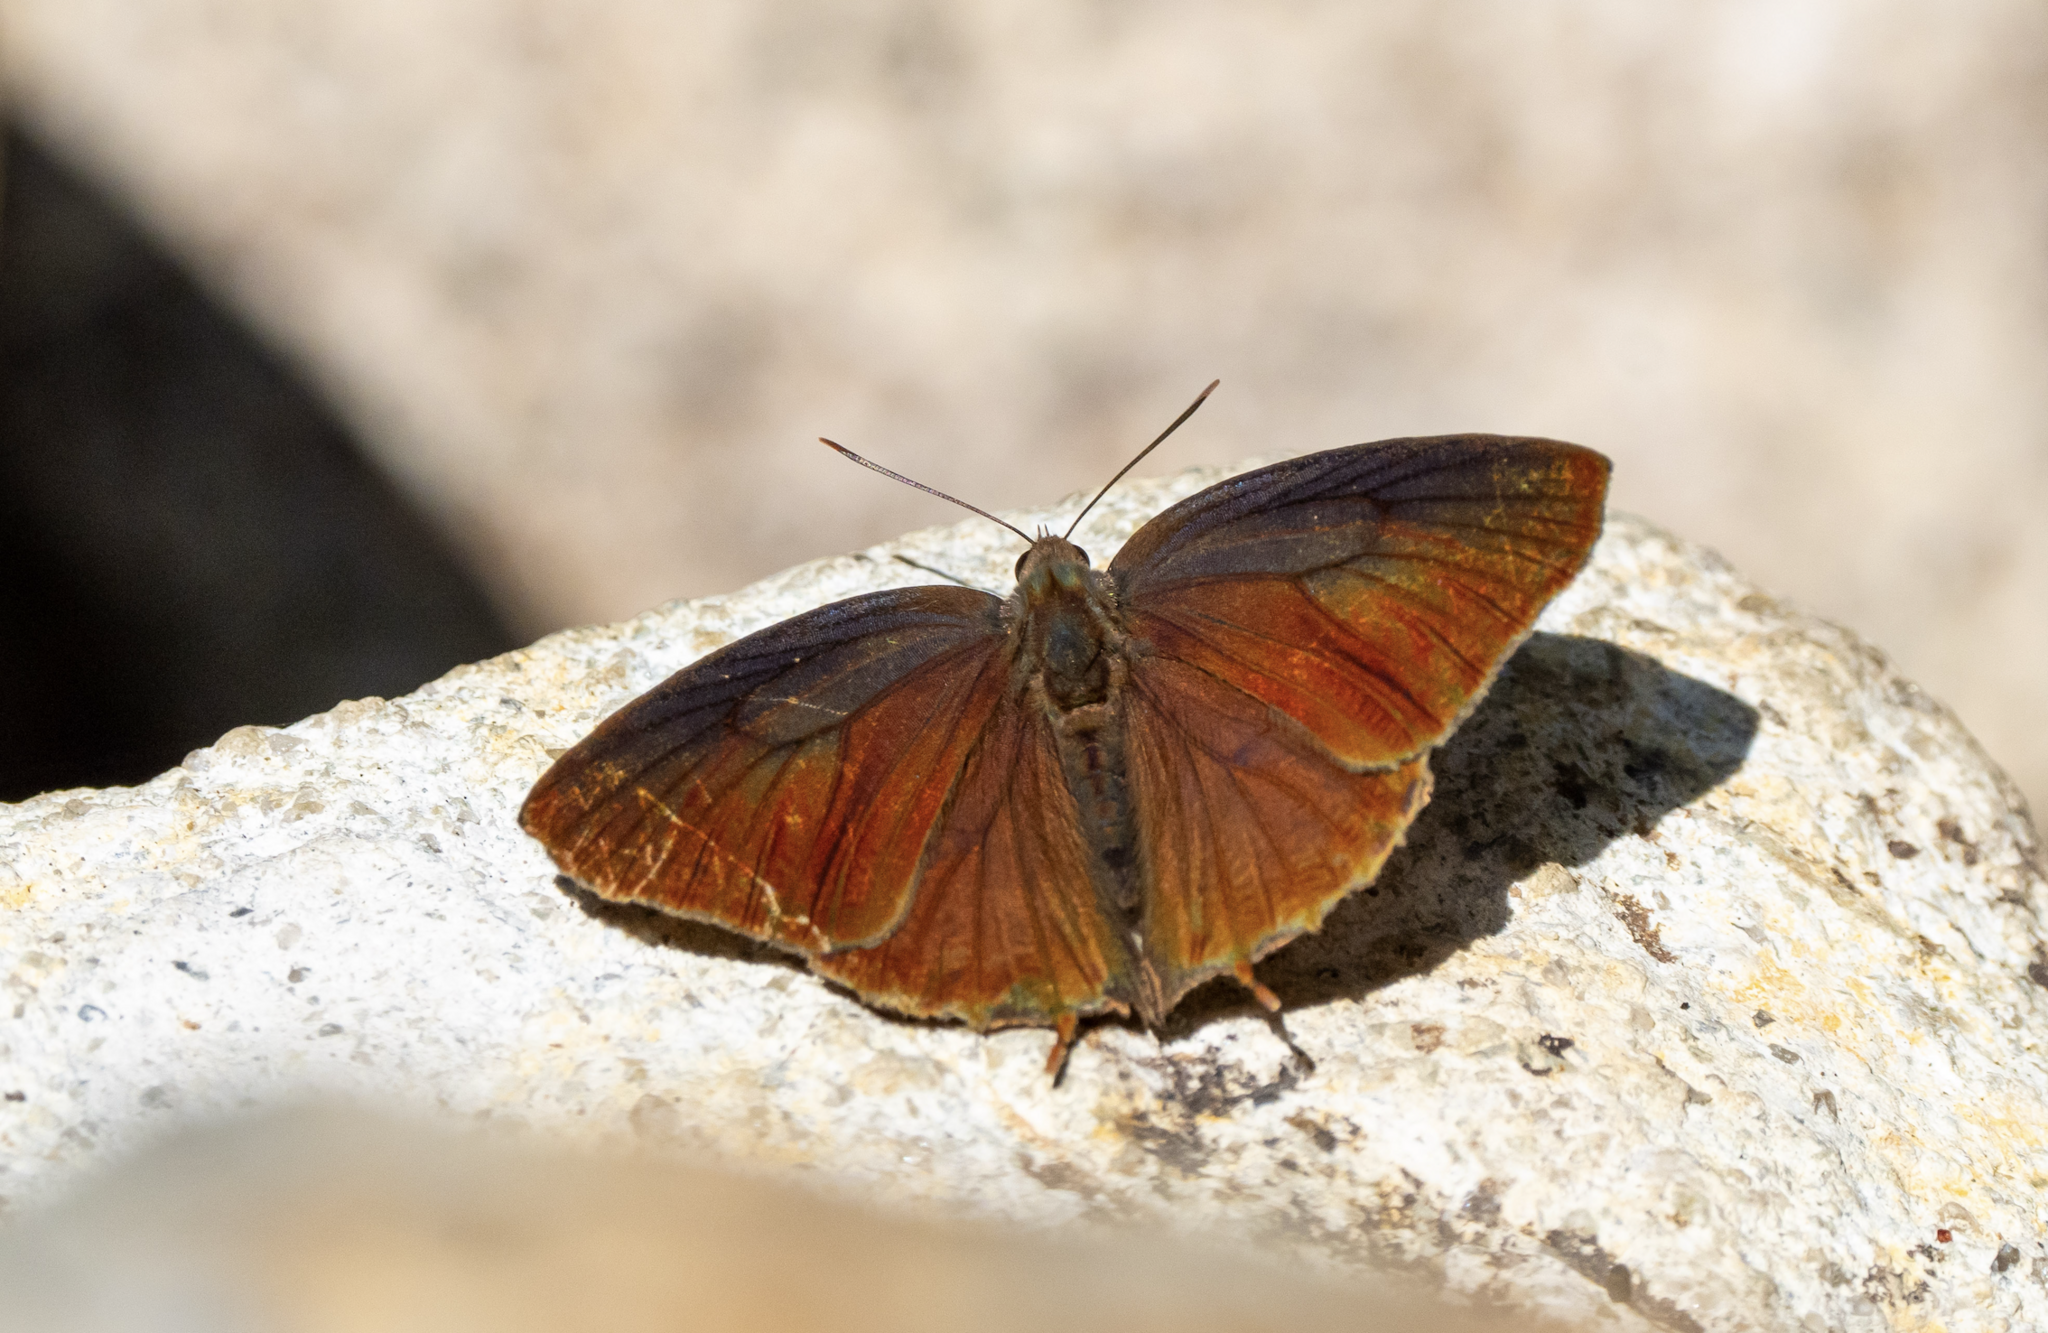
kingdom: Animalia
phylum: Arthropoda
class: Insecta
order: Lepidoptera
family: Lycaenidae
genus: Arhopala
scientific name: Arhopala bazalus
